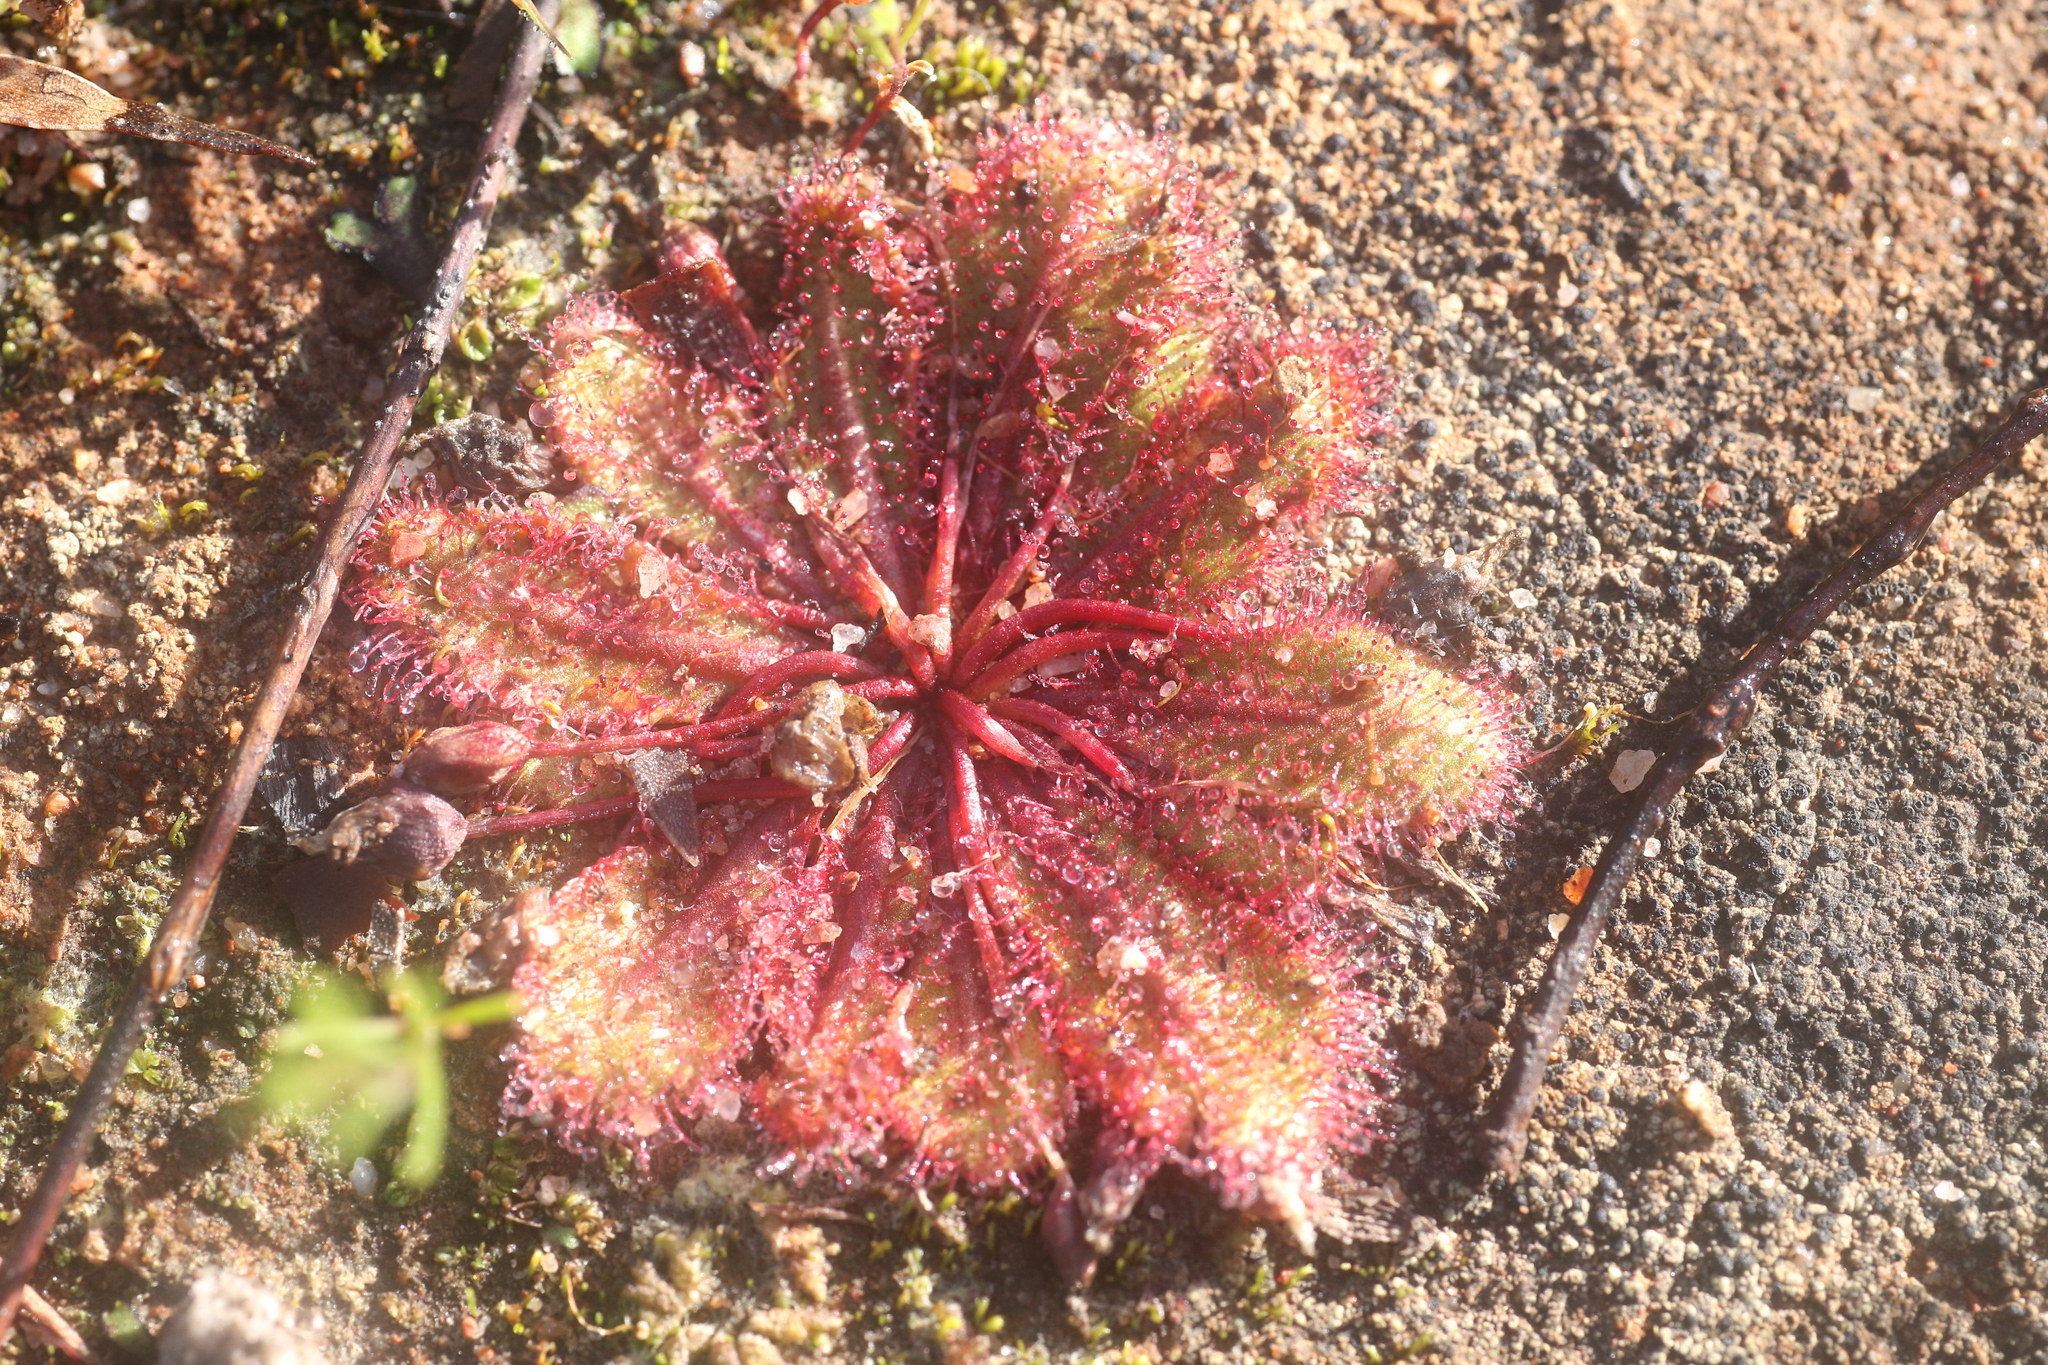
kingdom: Plantae
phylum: Tracheophyta
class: Magnoliopsida
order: Caryophyllales
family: Droseraceae
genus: Drosera
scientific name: Drosera bulbosa
